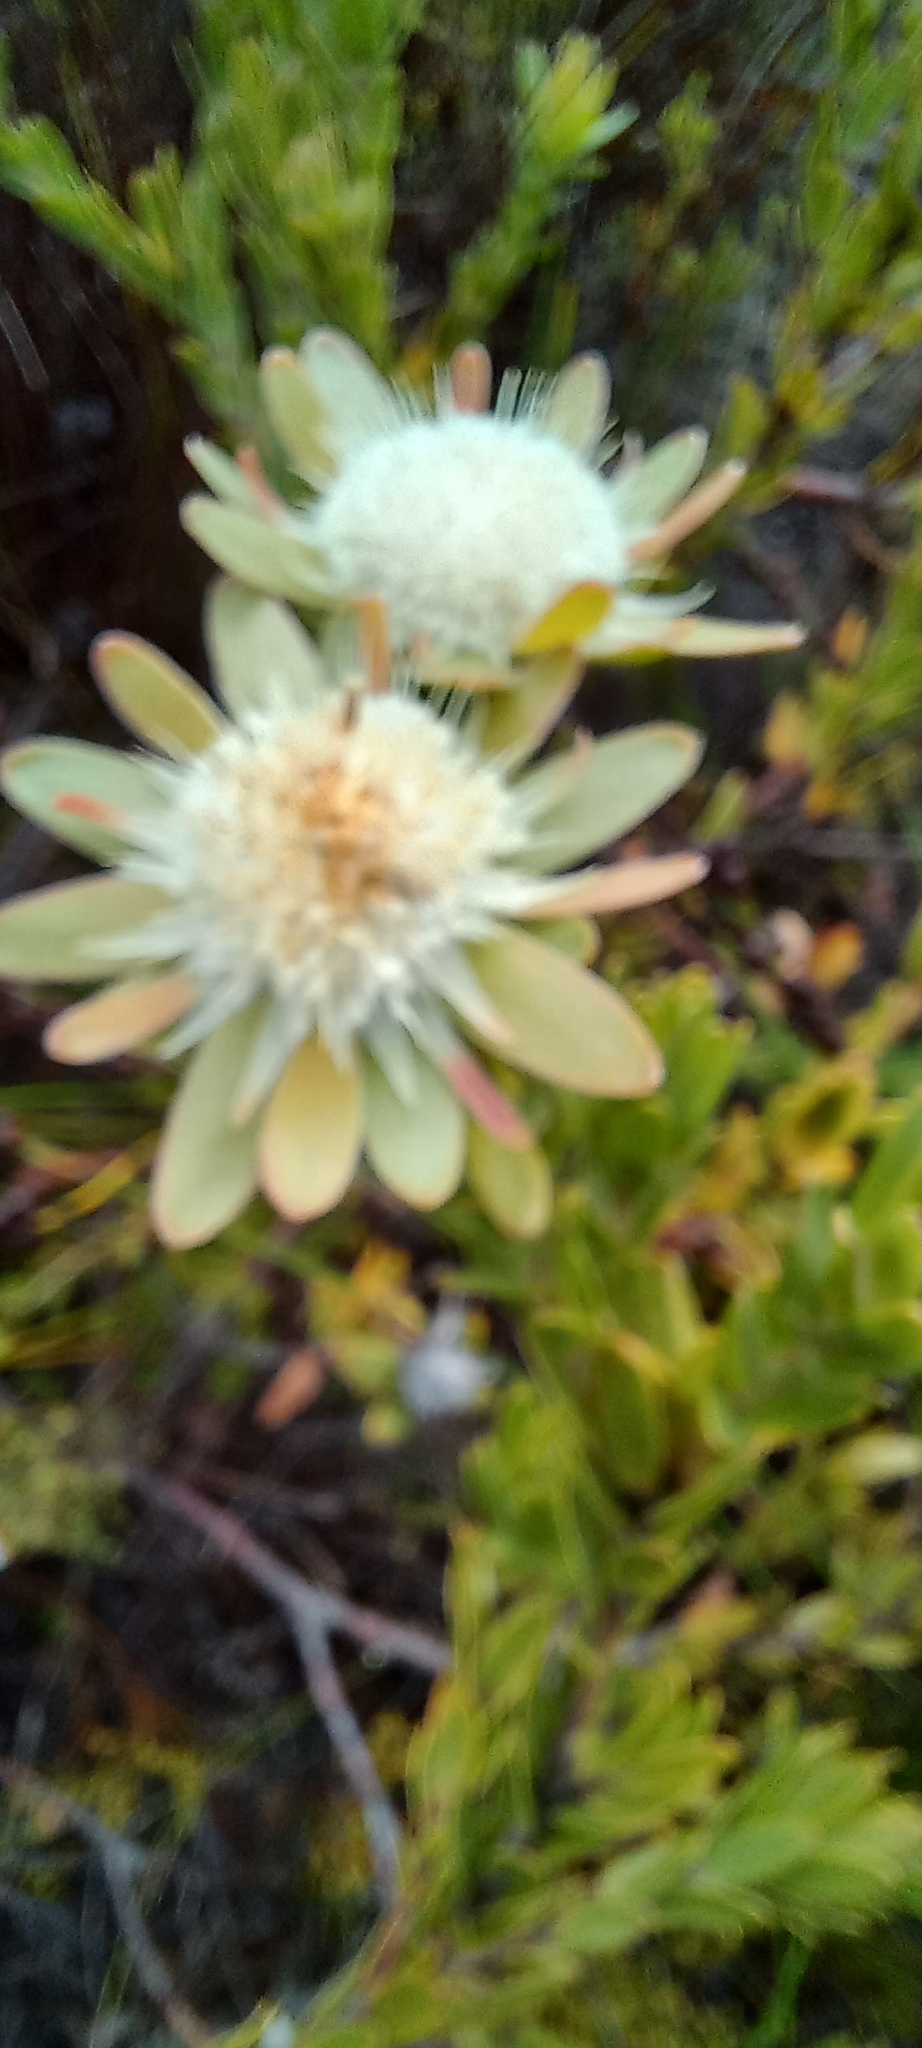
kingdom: Plantae
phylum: Tracheophyta
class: Magnoliopsida
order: Proteales
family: Proteaceae
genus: Diastella
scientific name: Diastella thymelaeoides
